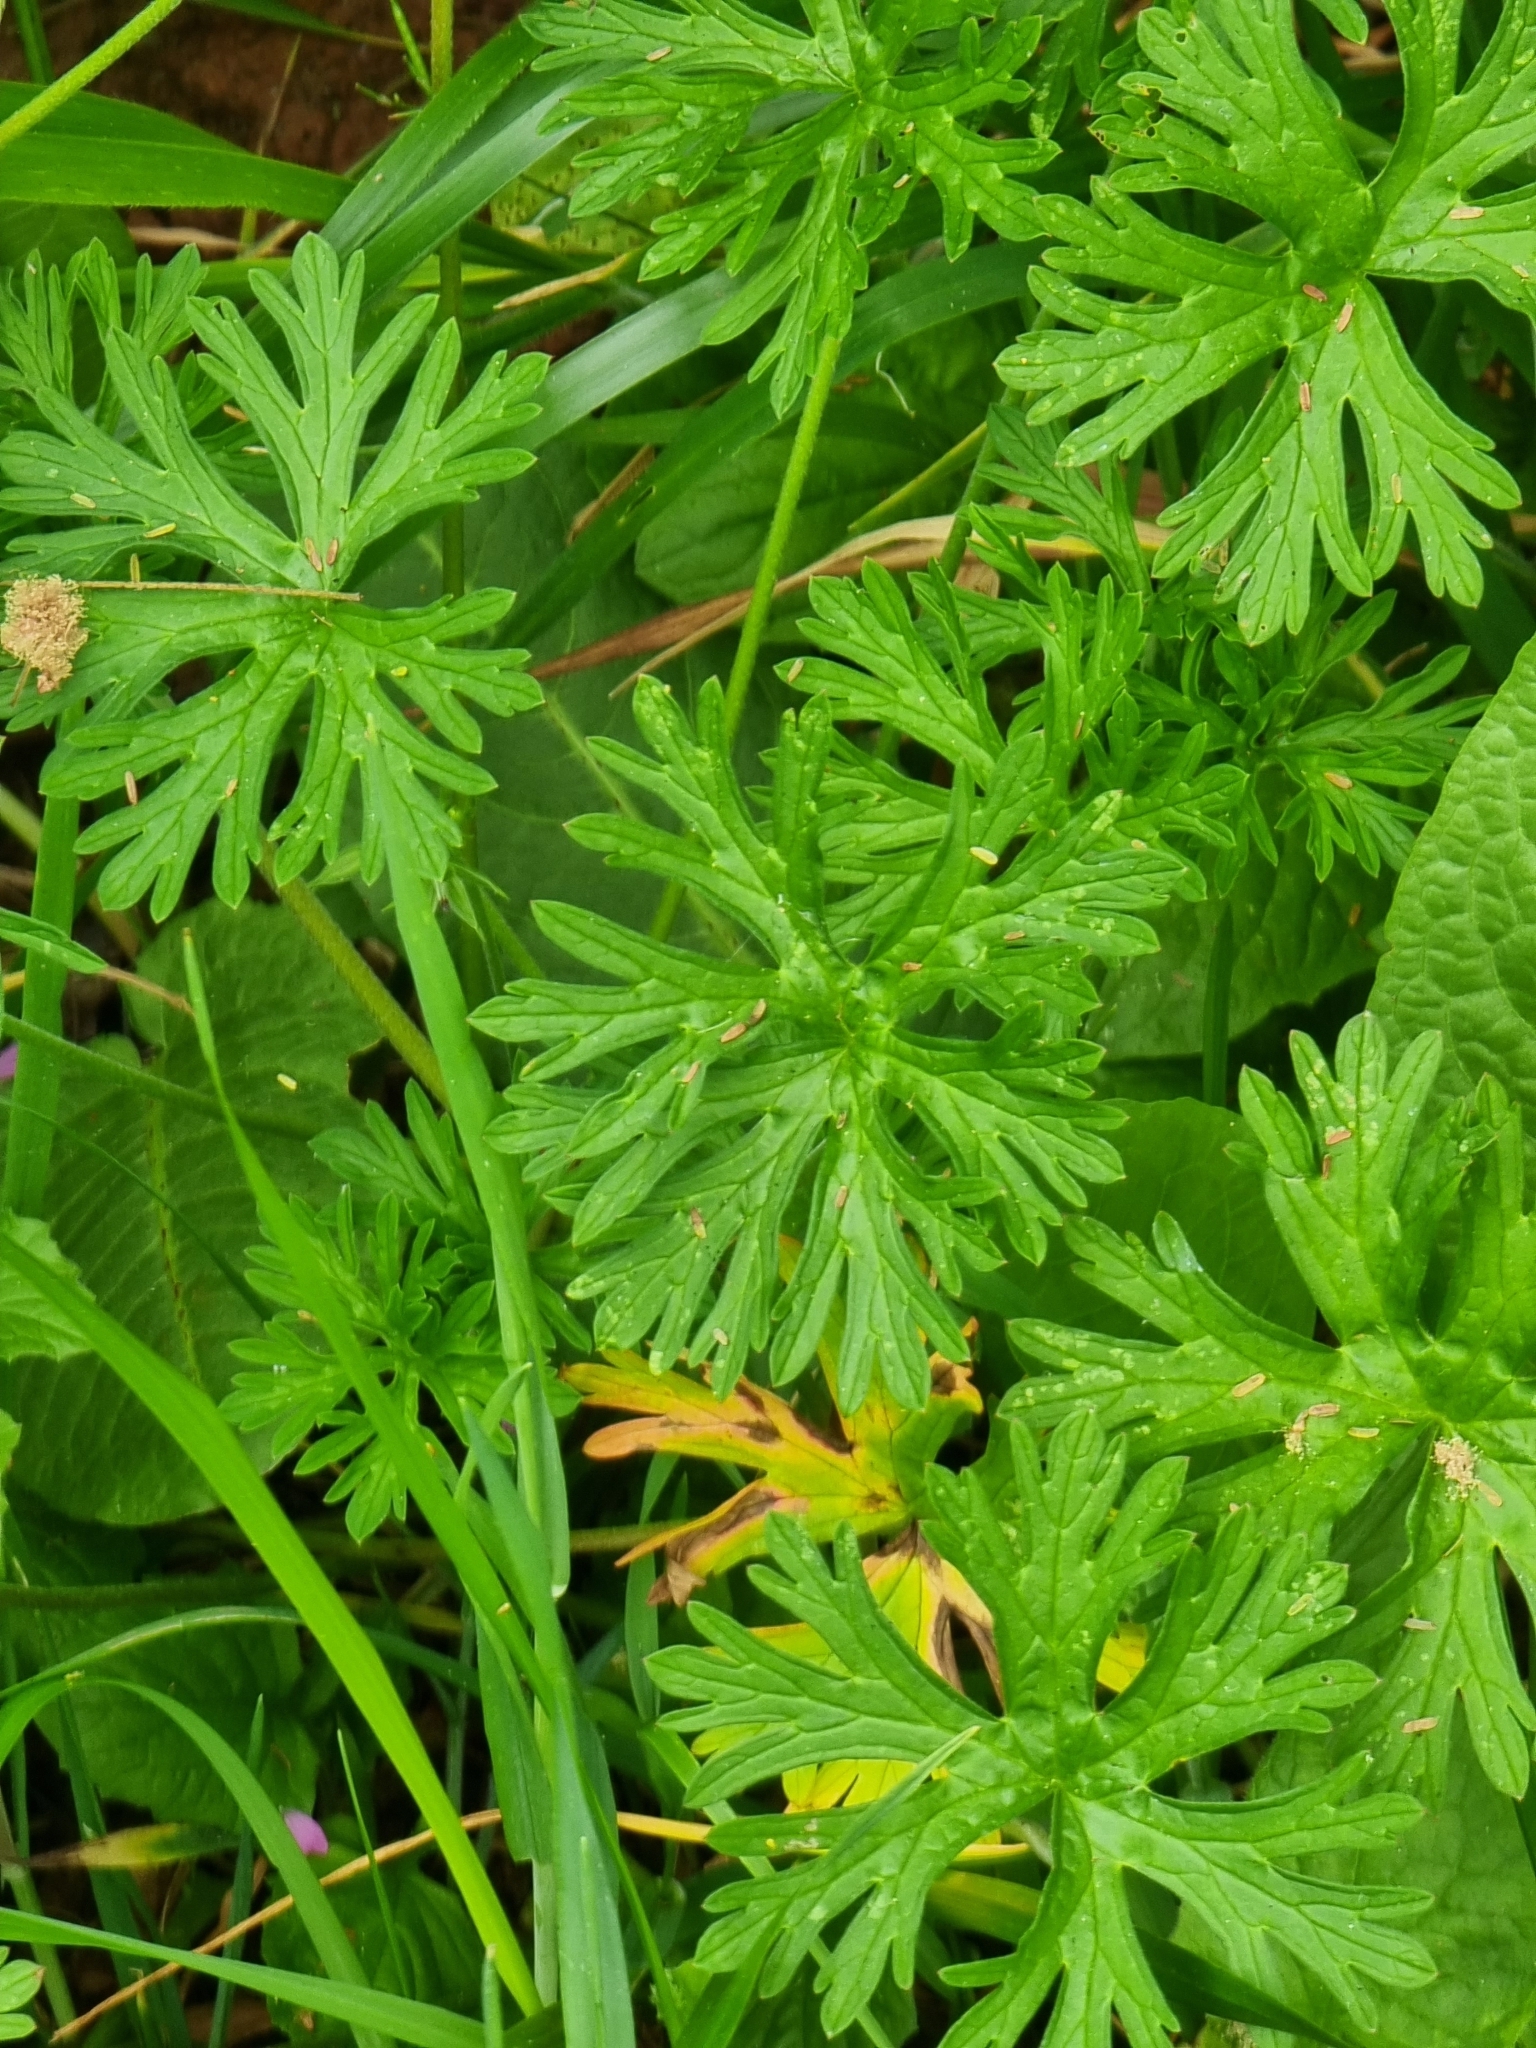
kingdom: Plantae
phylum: Tracheophyta
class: Magnoliopsida
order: Geraniales
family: Geraniaceae
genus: Geranium
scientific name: Geranium dissectum
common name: Cut-leaved crane's-bill
